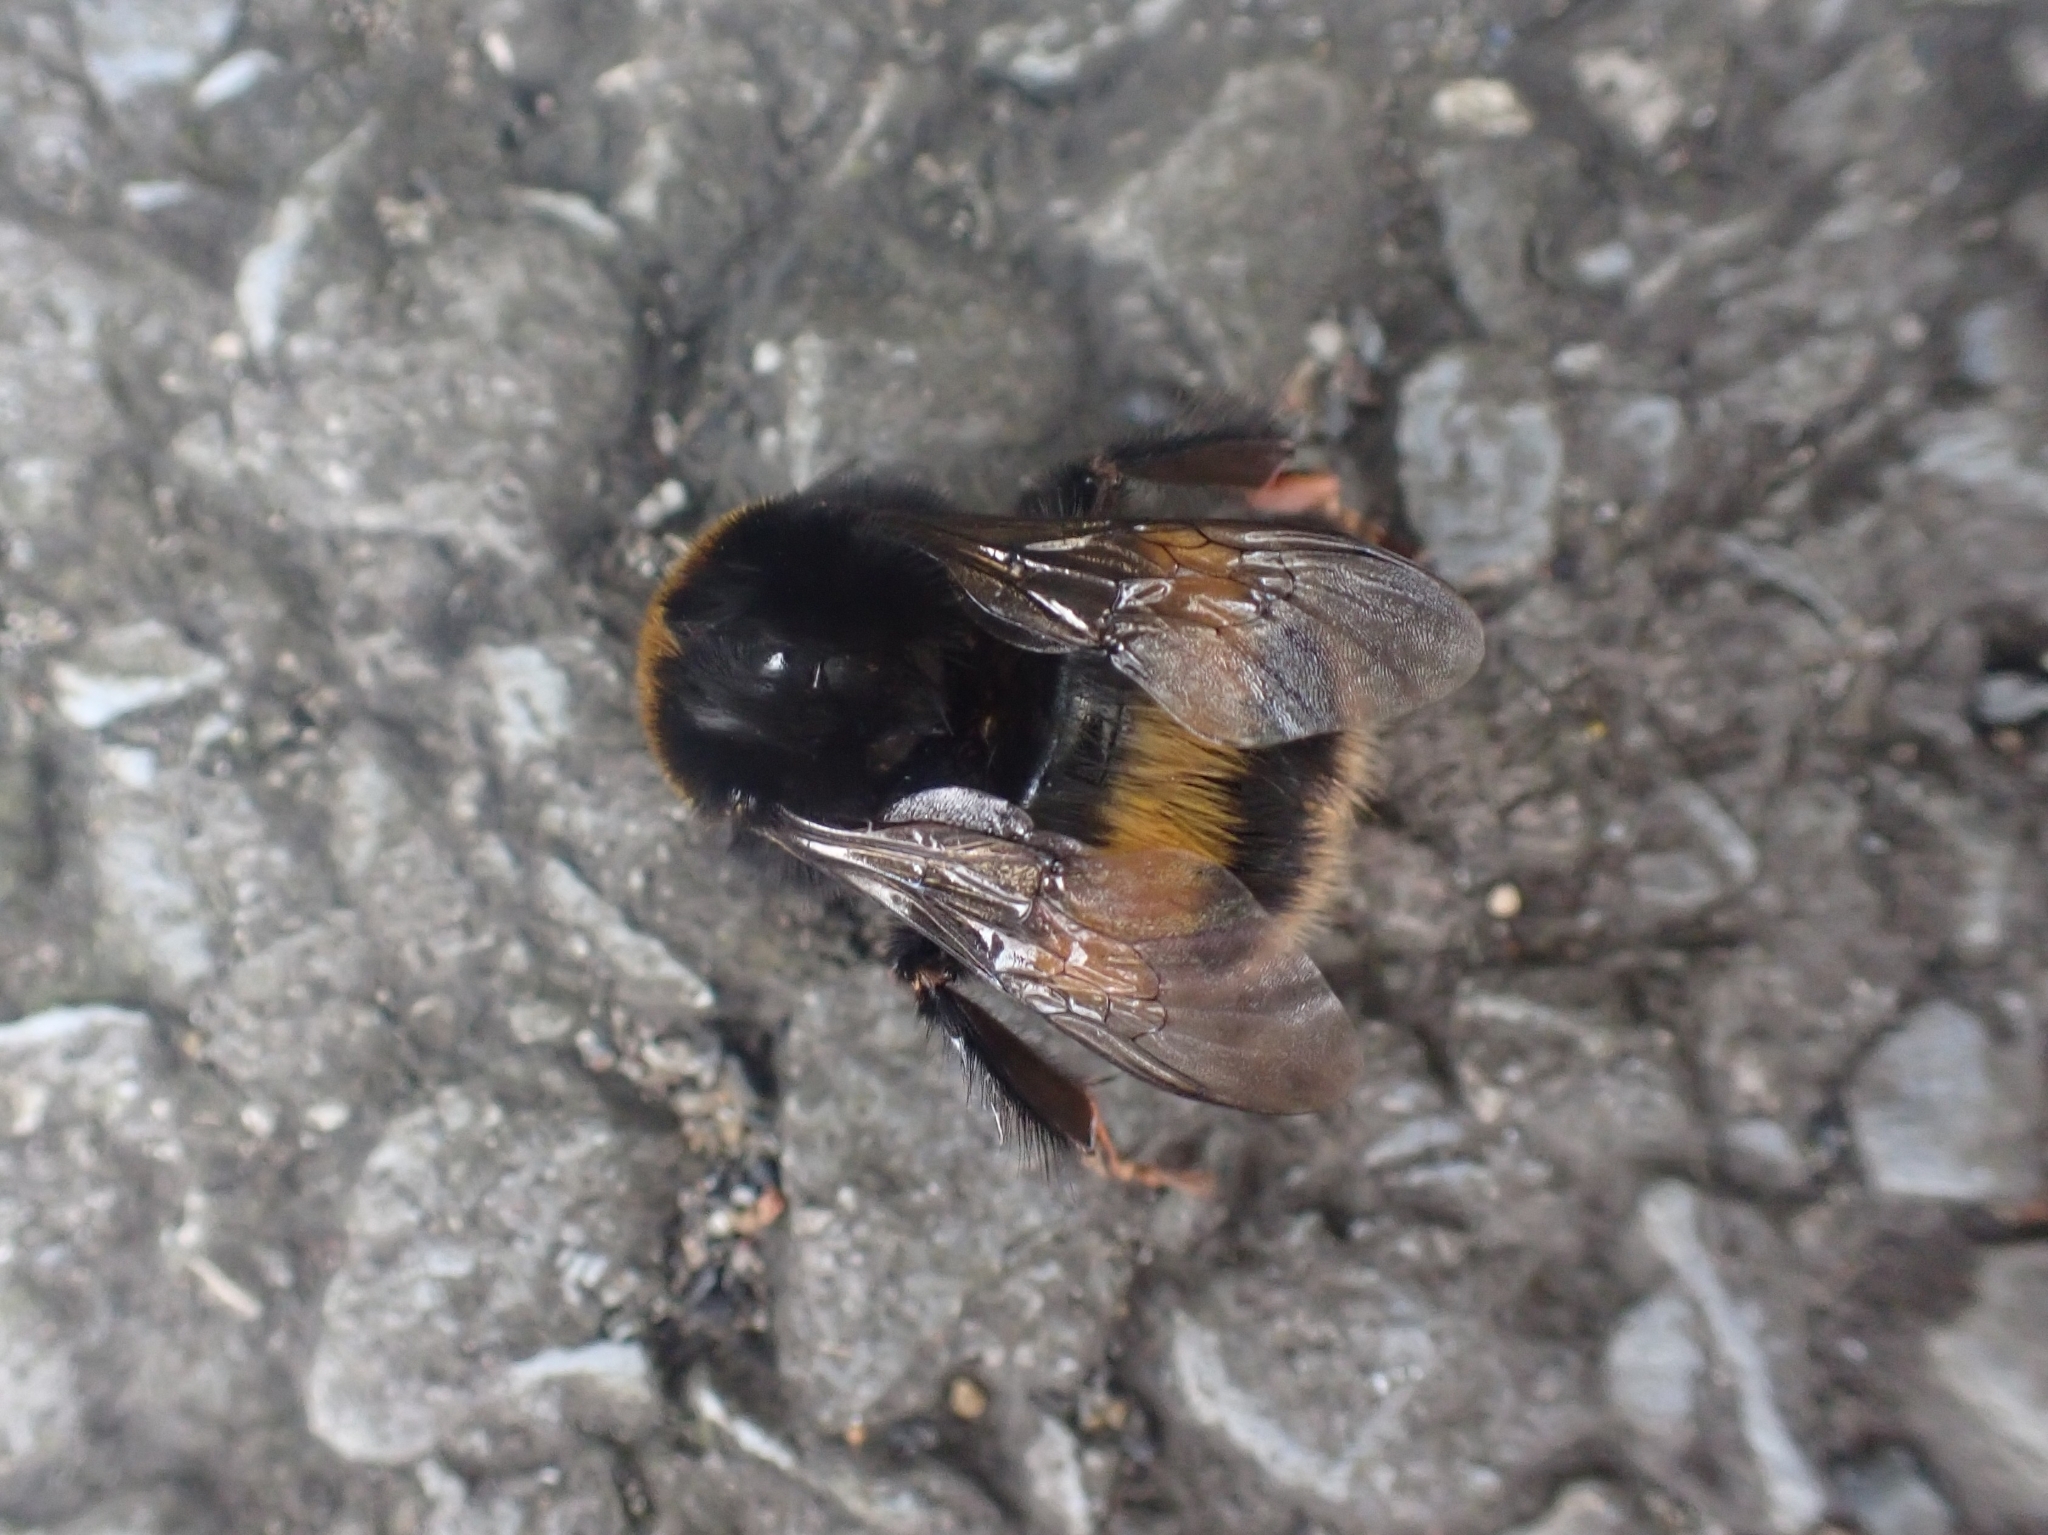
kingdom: Animalia
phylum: Arthropoda
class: Insecta
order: Hymenoptera
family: Apidae
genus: Bombus
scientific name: Bombus terrestris
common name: Buff-tailed bumblebee
